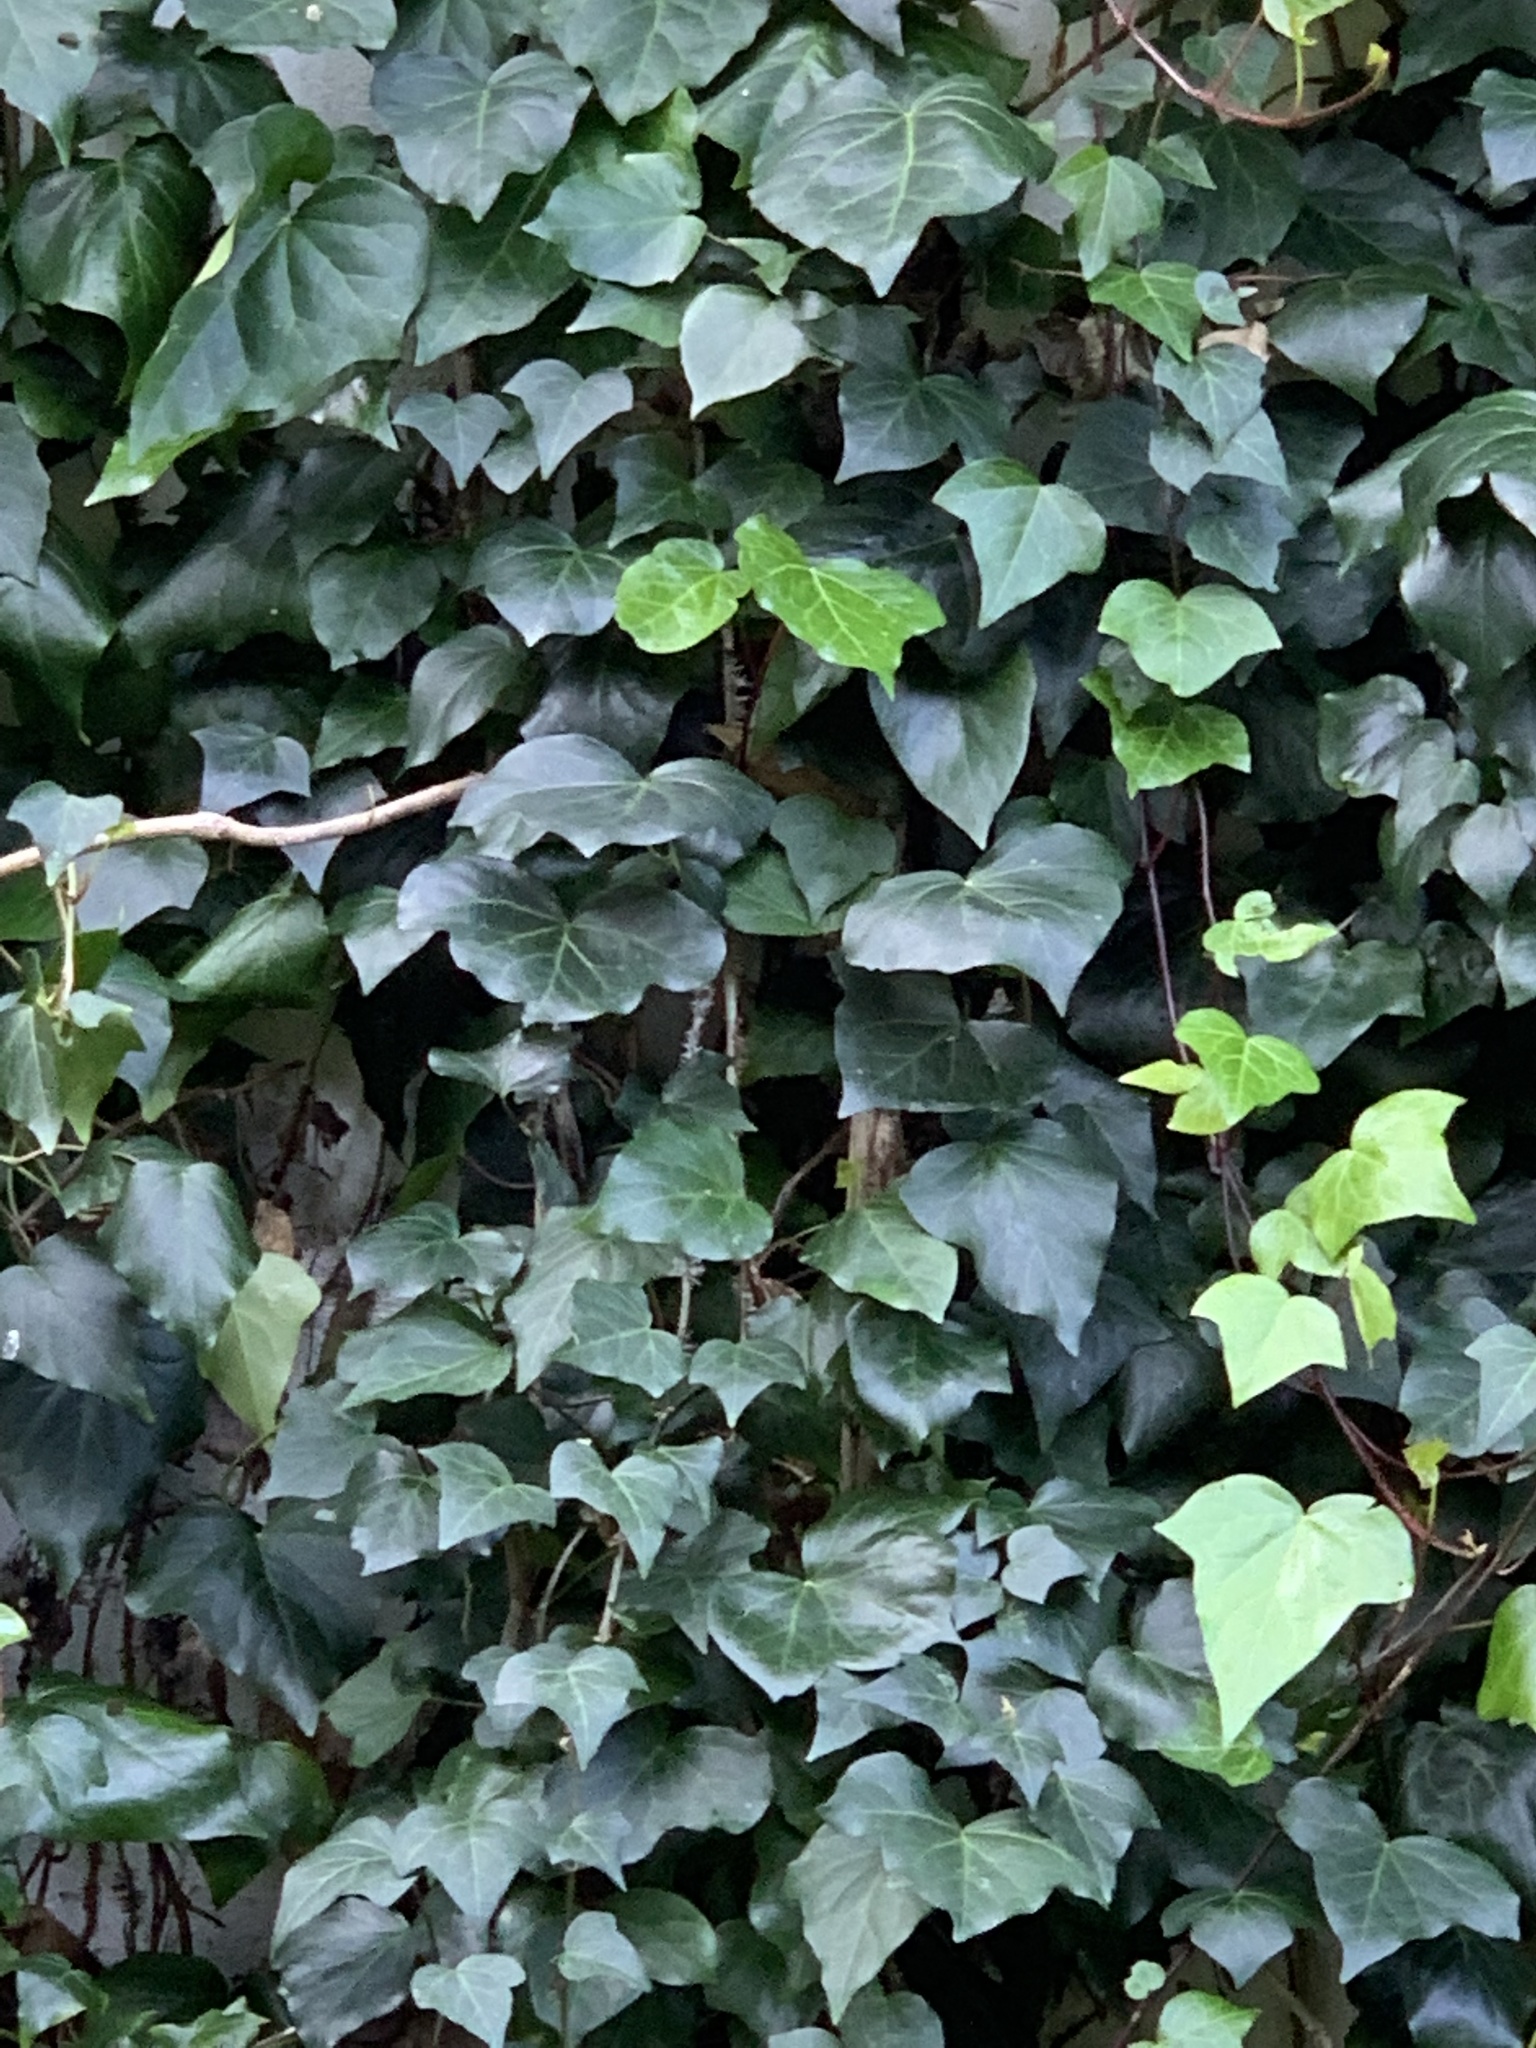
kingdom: Plantae
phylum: Tracheophyta
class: Magnoliopsida
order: Apiales
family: Araliaceae
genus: Hedera
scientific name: Hedera canariensis
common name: Madeira ivy
